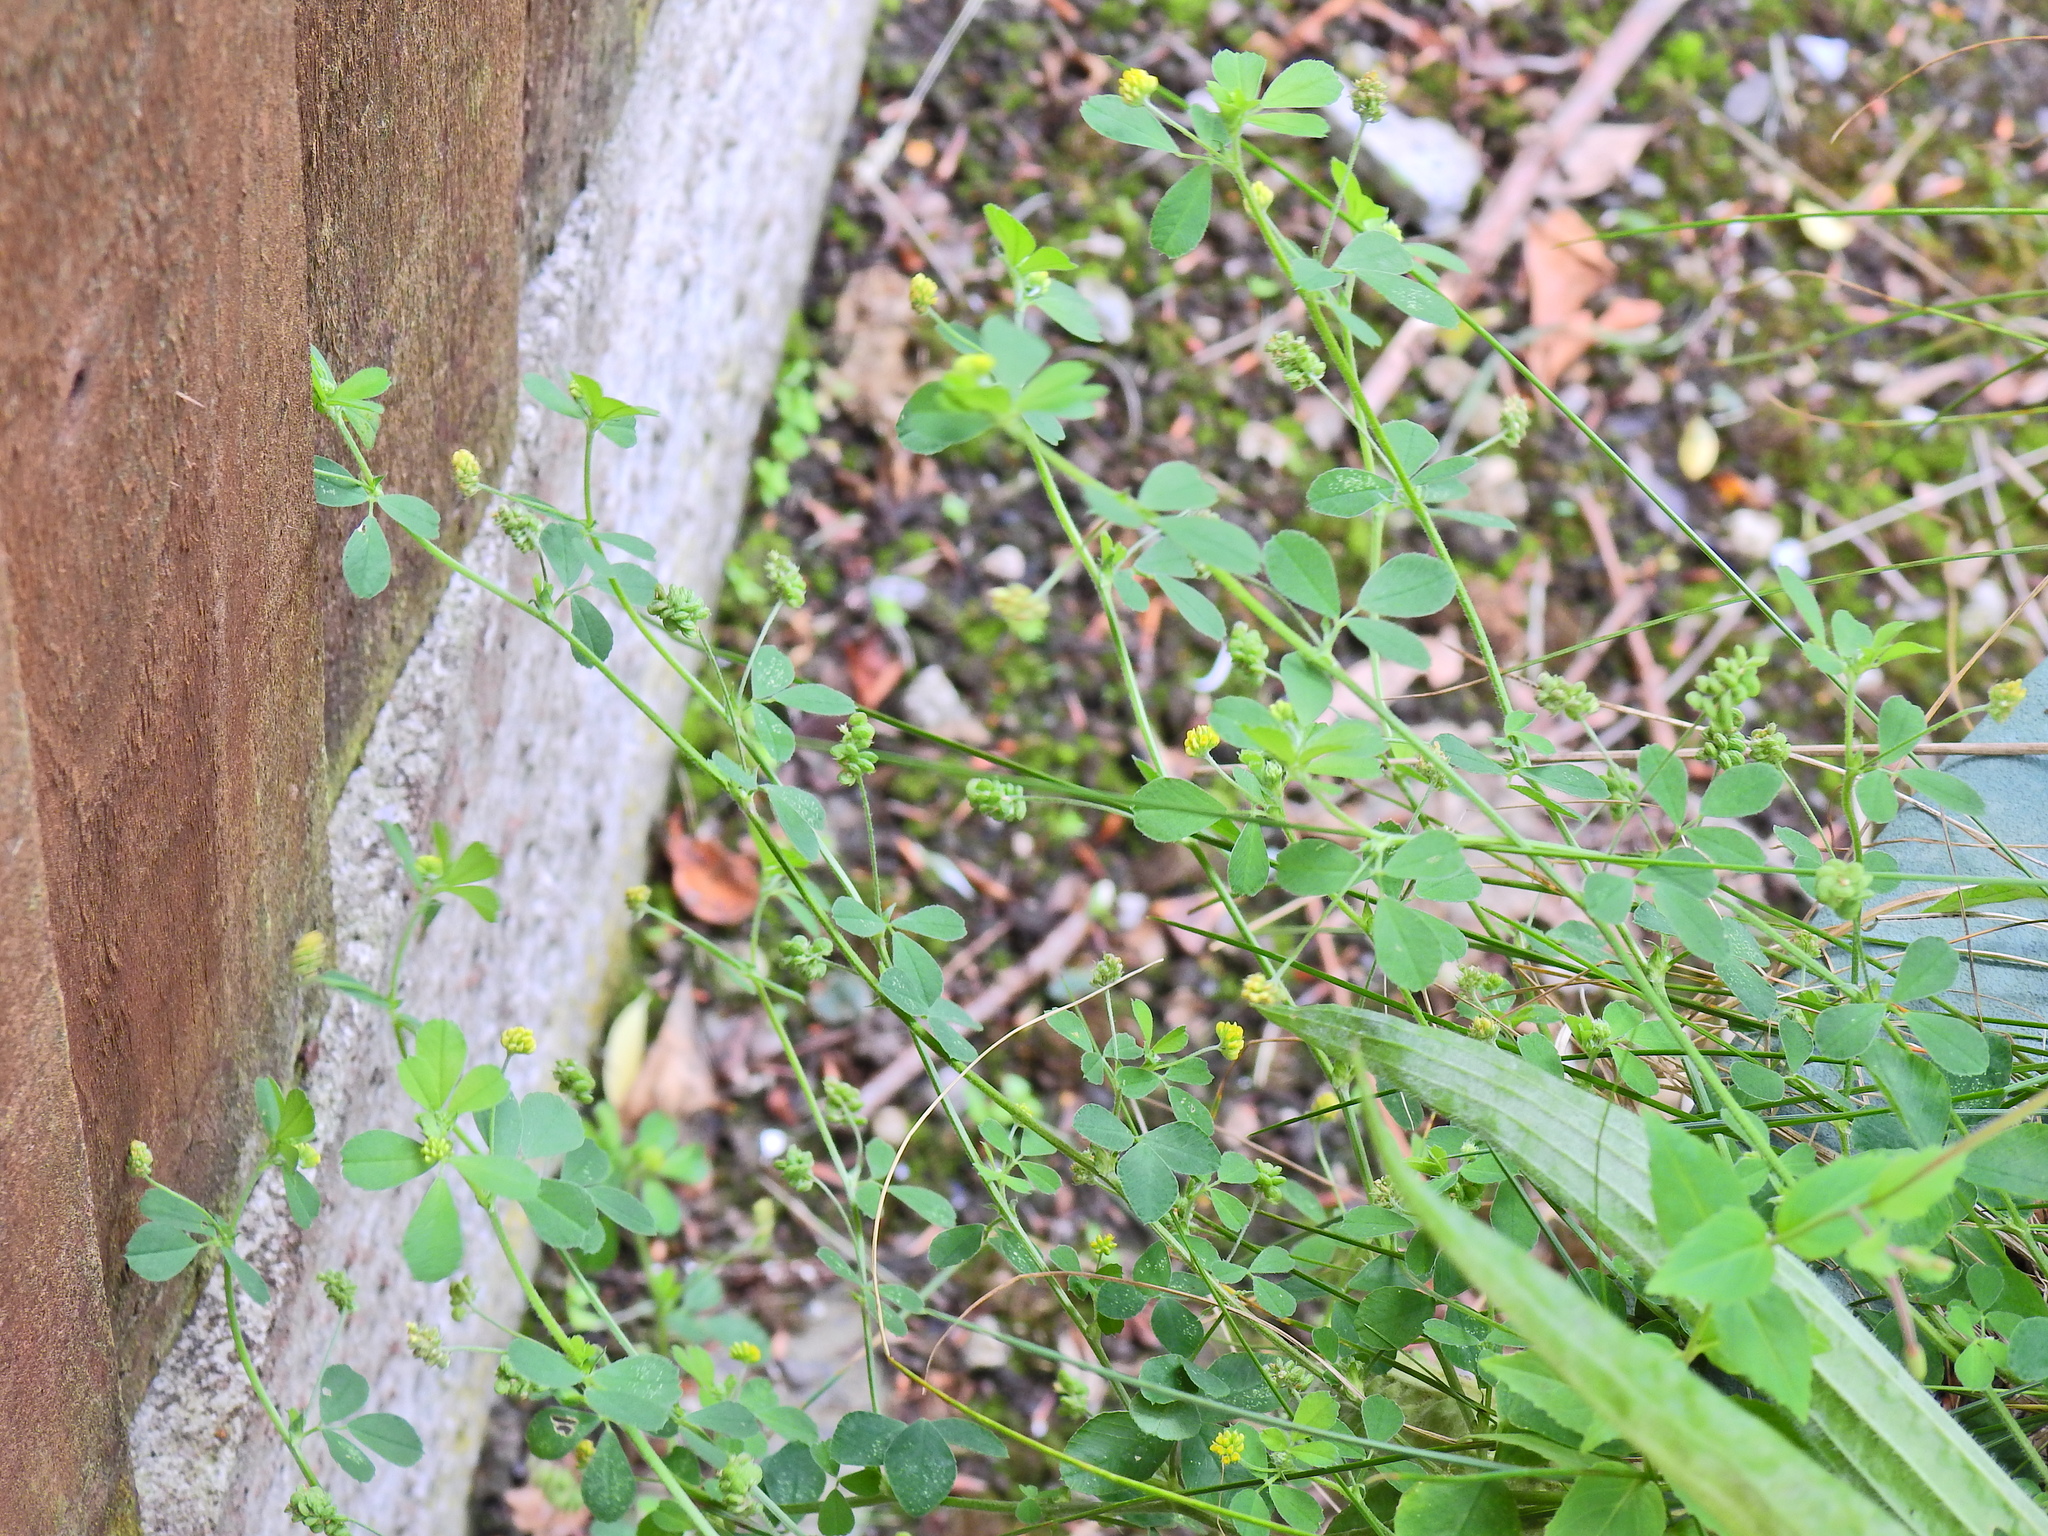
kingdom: Plantae
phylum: Tracheophyta
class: Magnoliopsida
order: Fabales
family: Fabaceae
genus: Medicago
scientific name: Medicago lupulina
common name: Black medick
